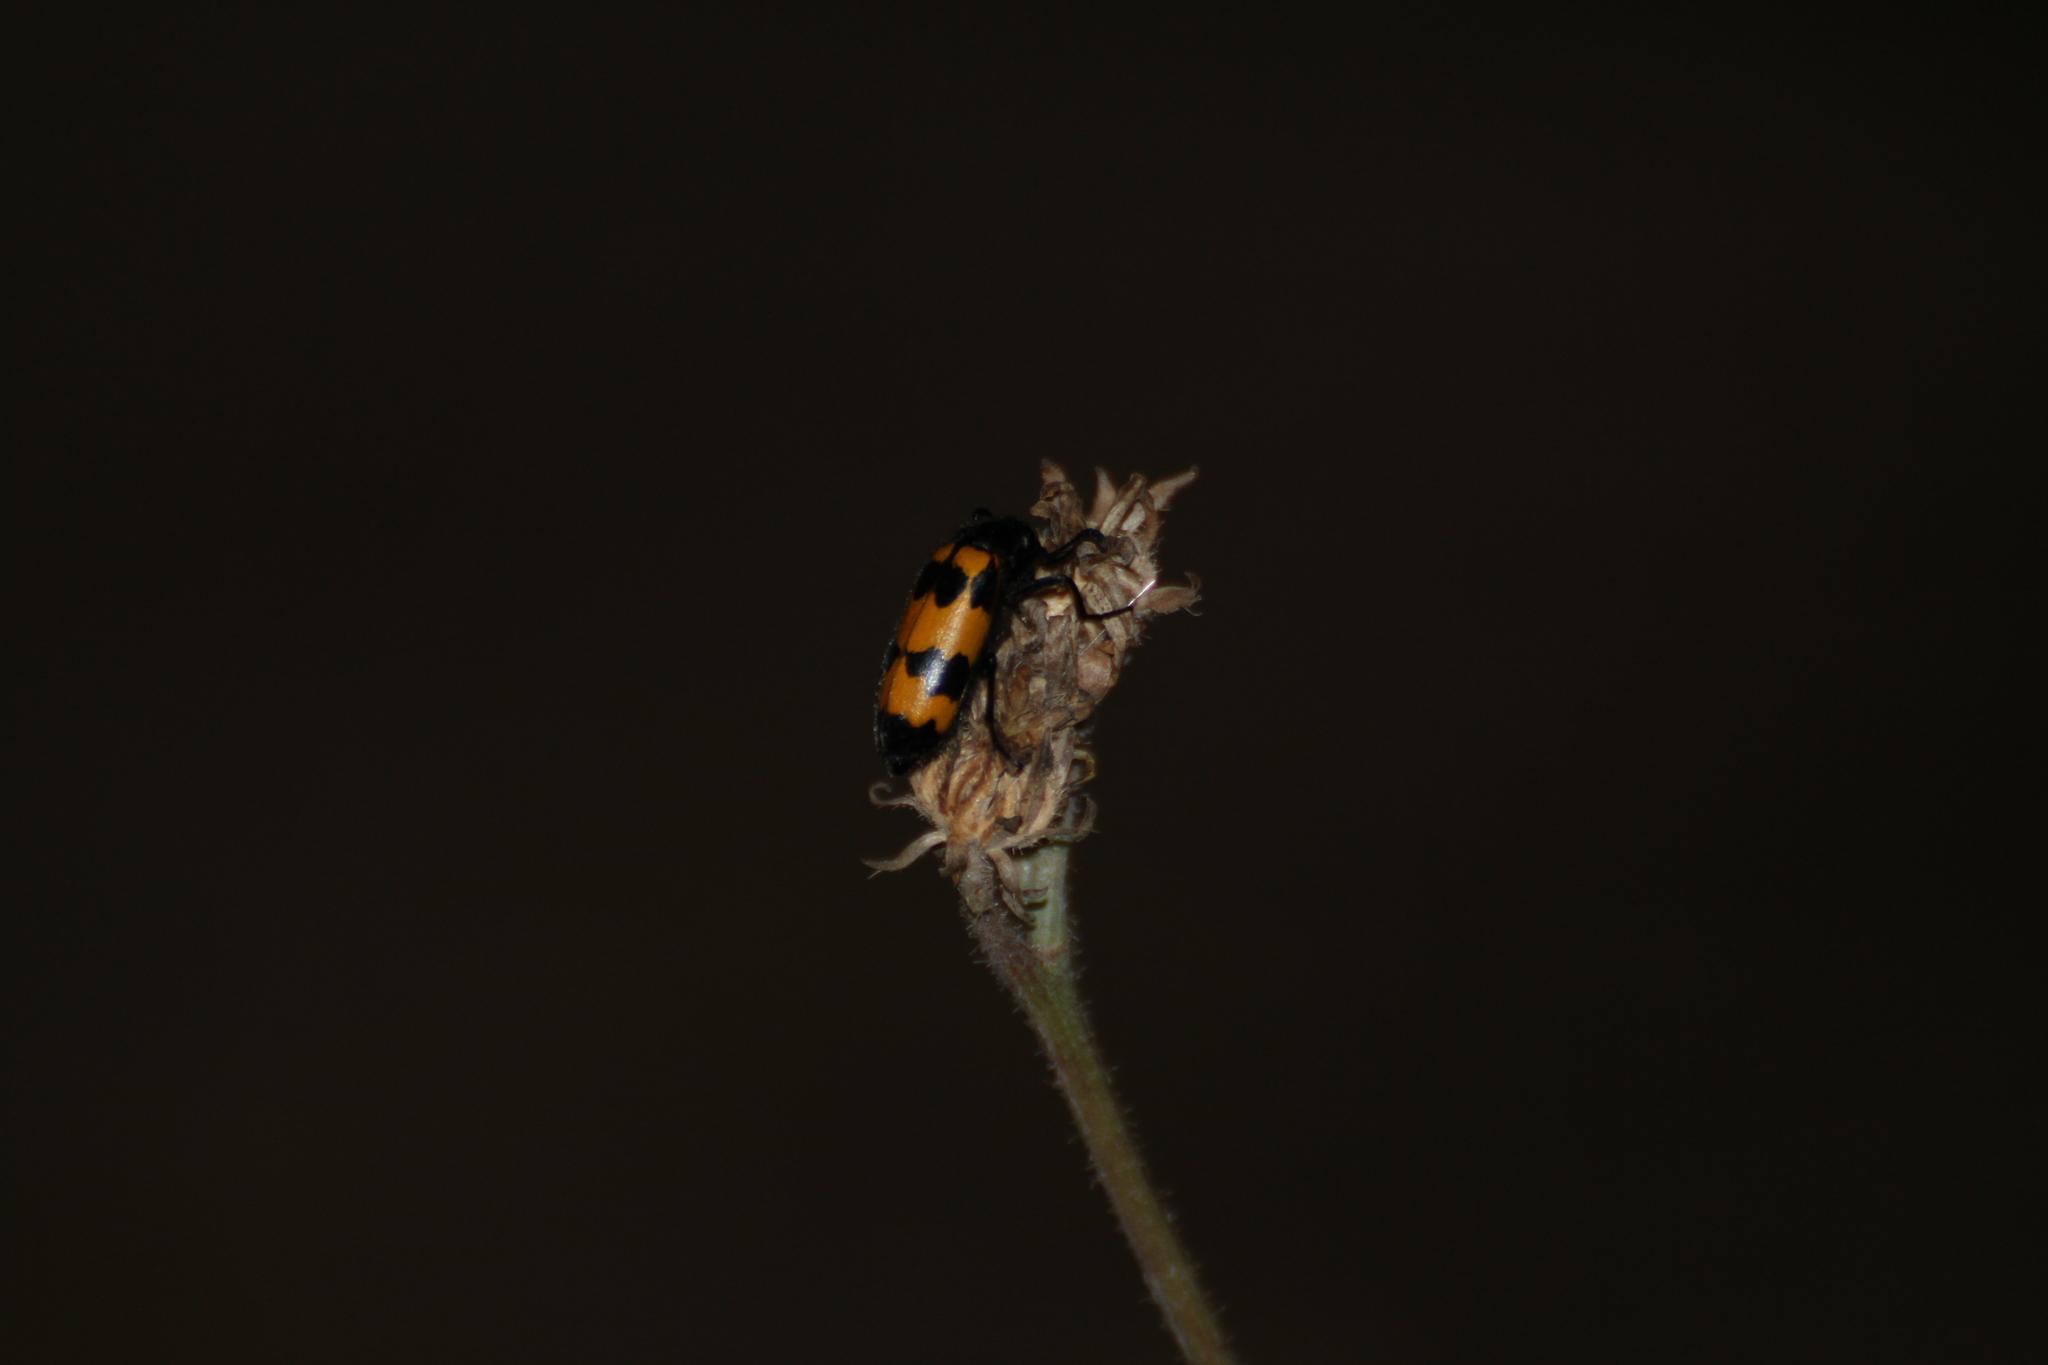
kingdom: Animalia
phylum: Arthropoda
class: Insecta
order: Coleoptera
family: Meloidae
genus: Mylabris
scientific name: Mylabris variabilis
